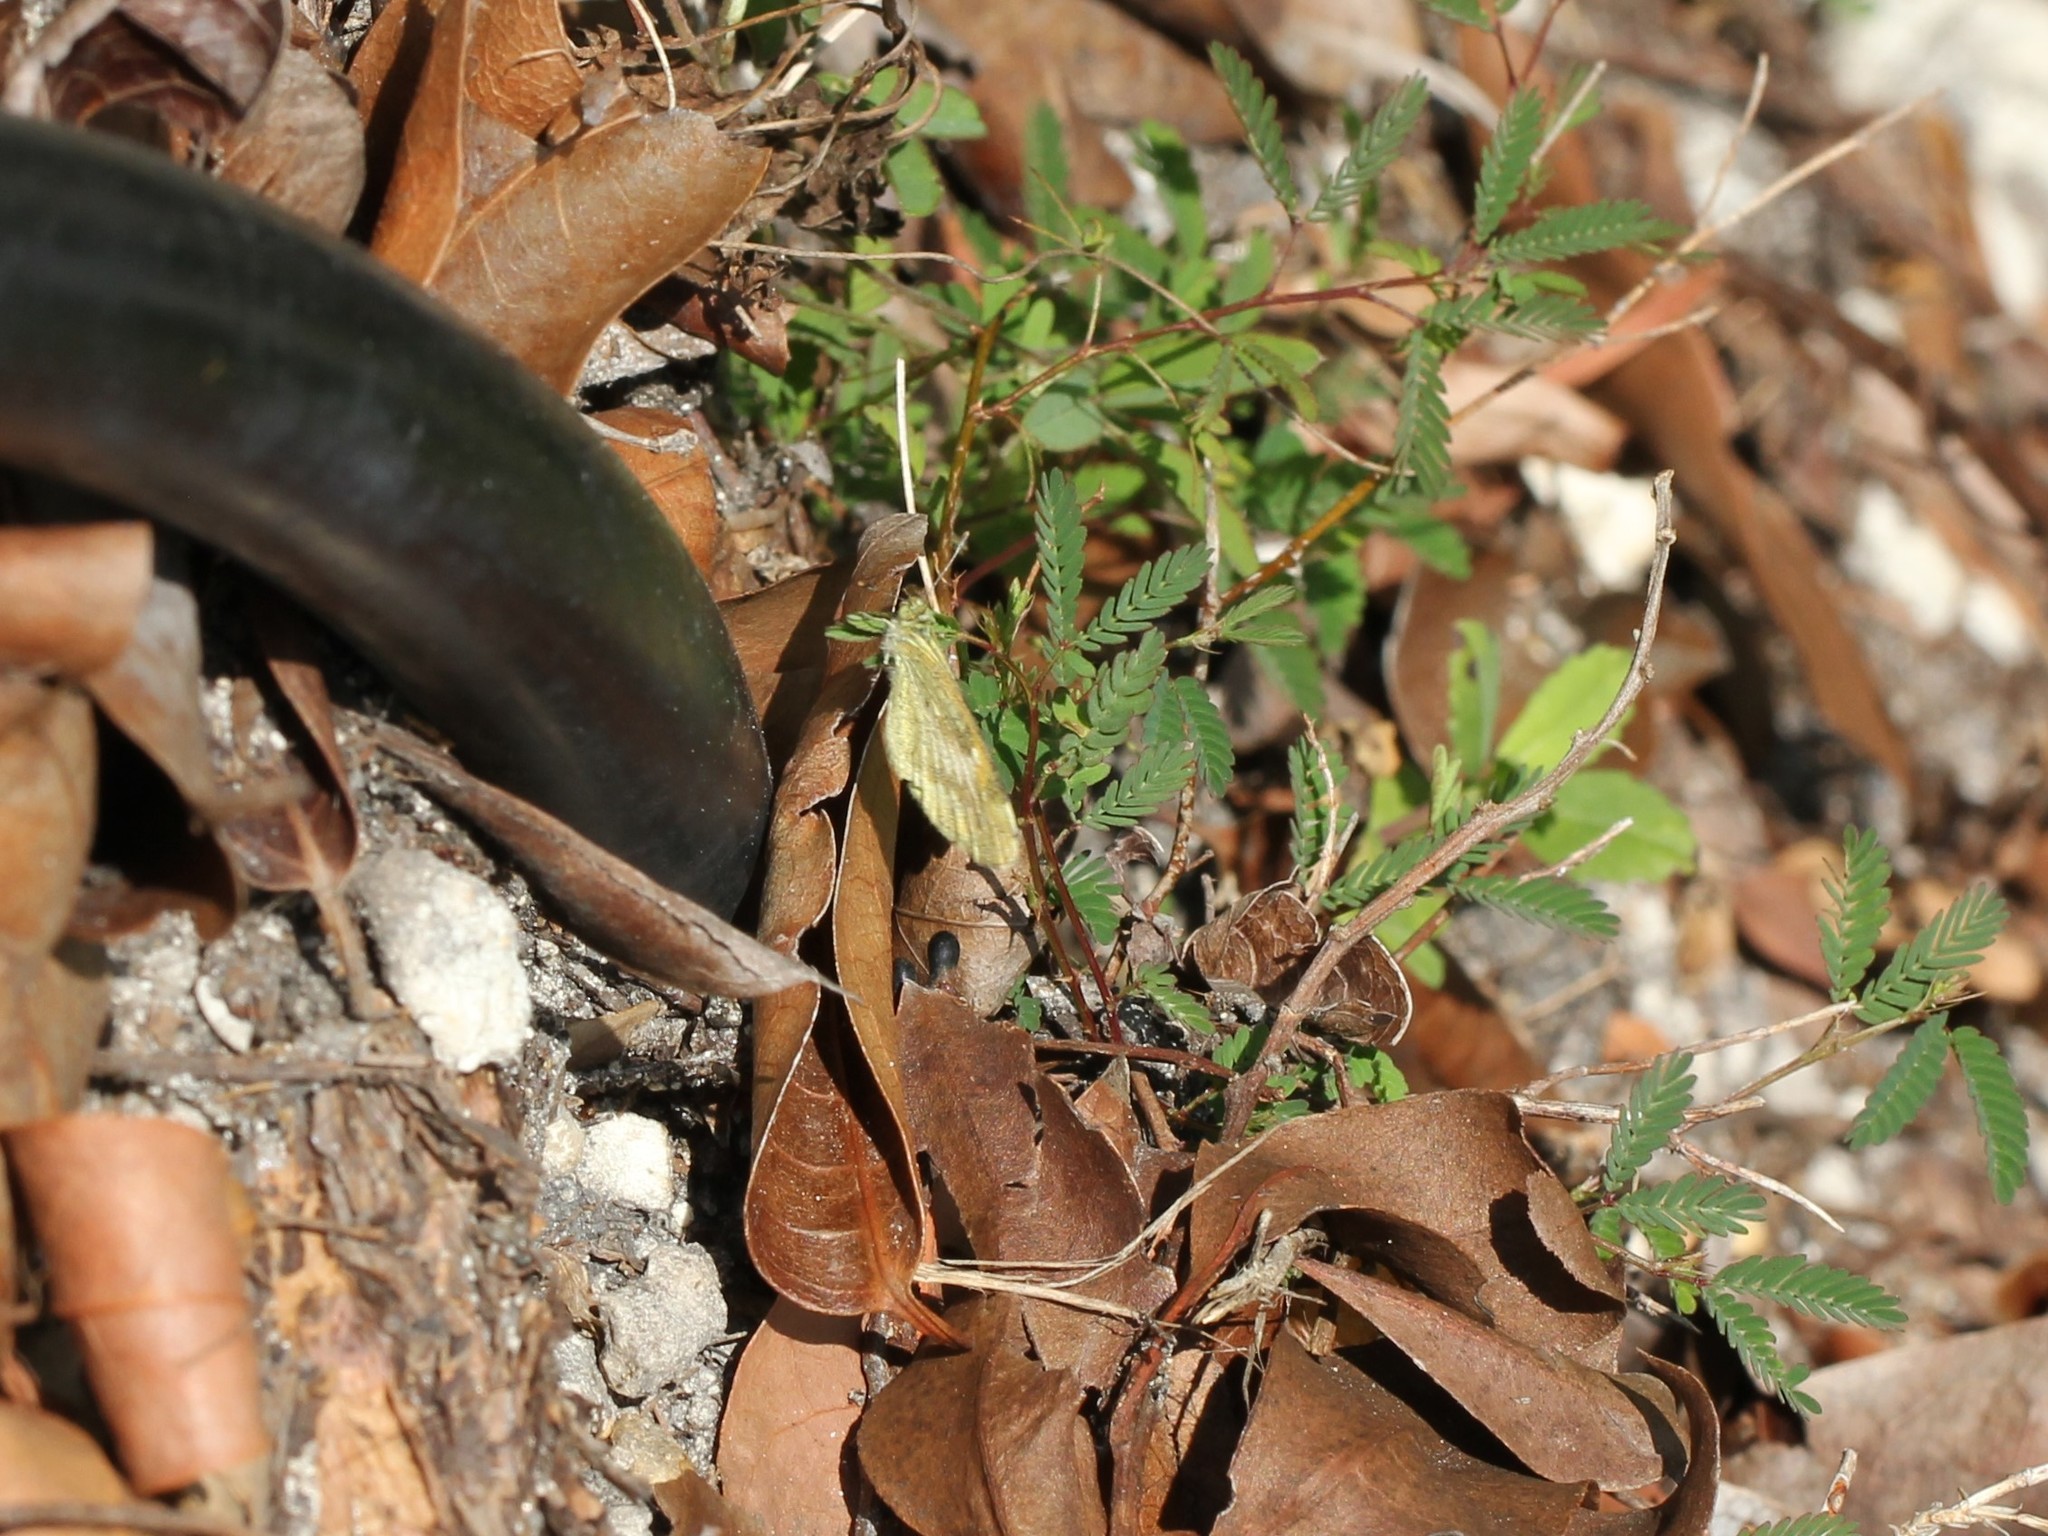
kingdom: Animalia
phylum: Arthropoda
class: Insecta
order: Lepidoptera
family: Pieridae
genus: Nathalis
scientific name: Nathalis iole
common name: Dainty sulphur
